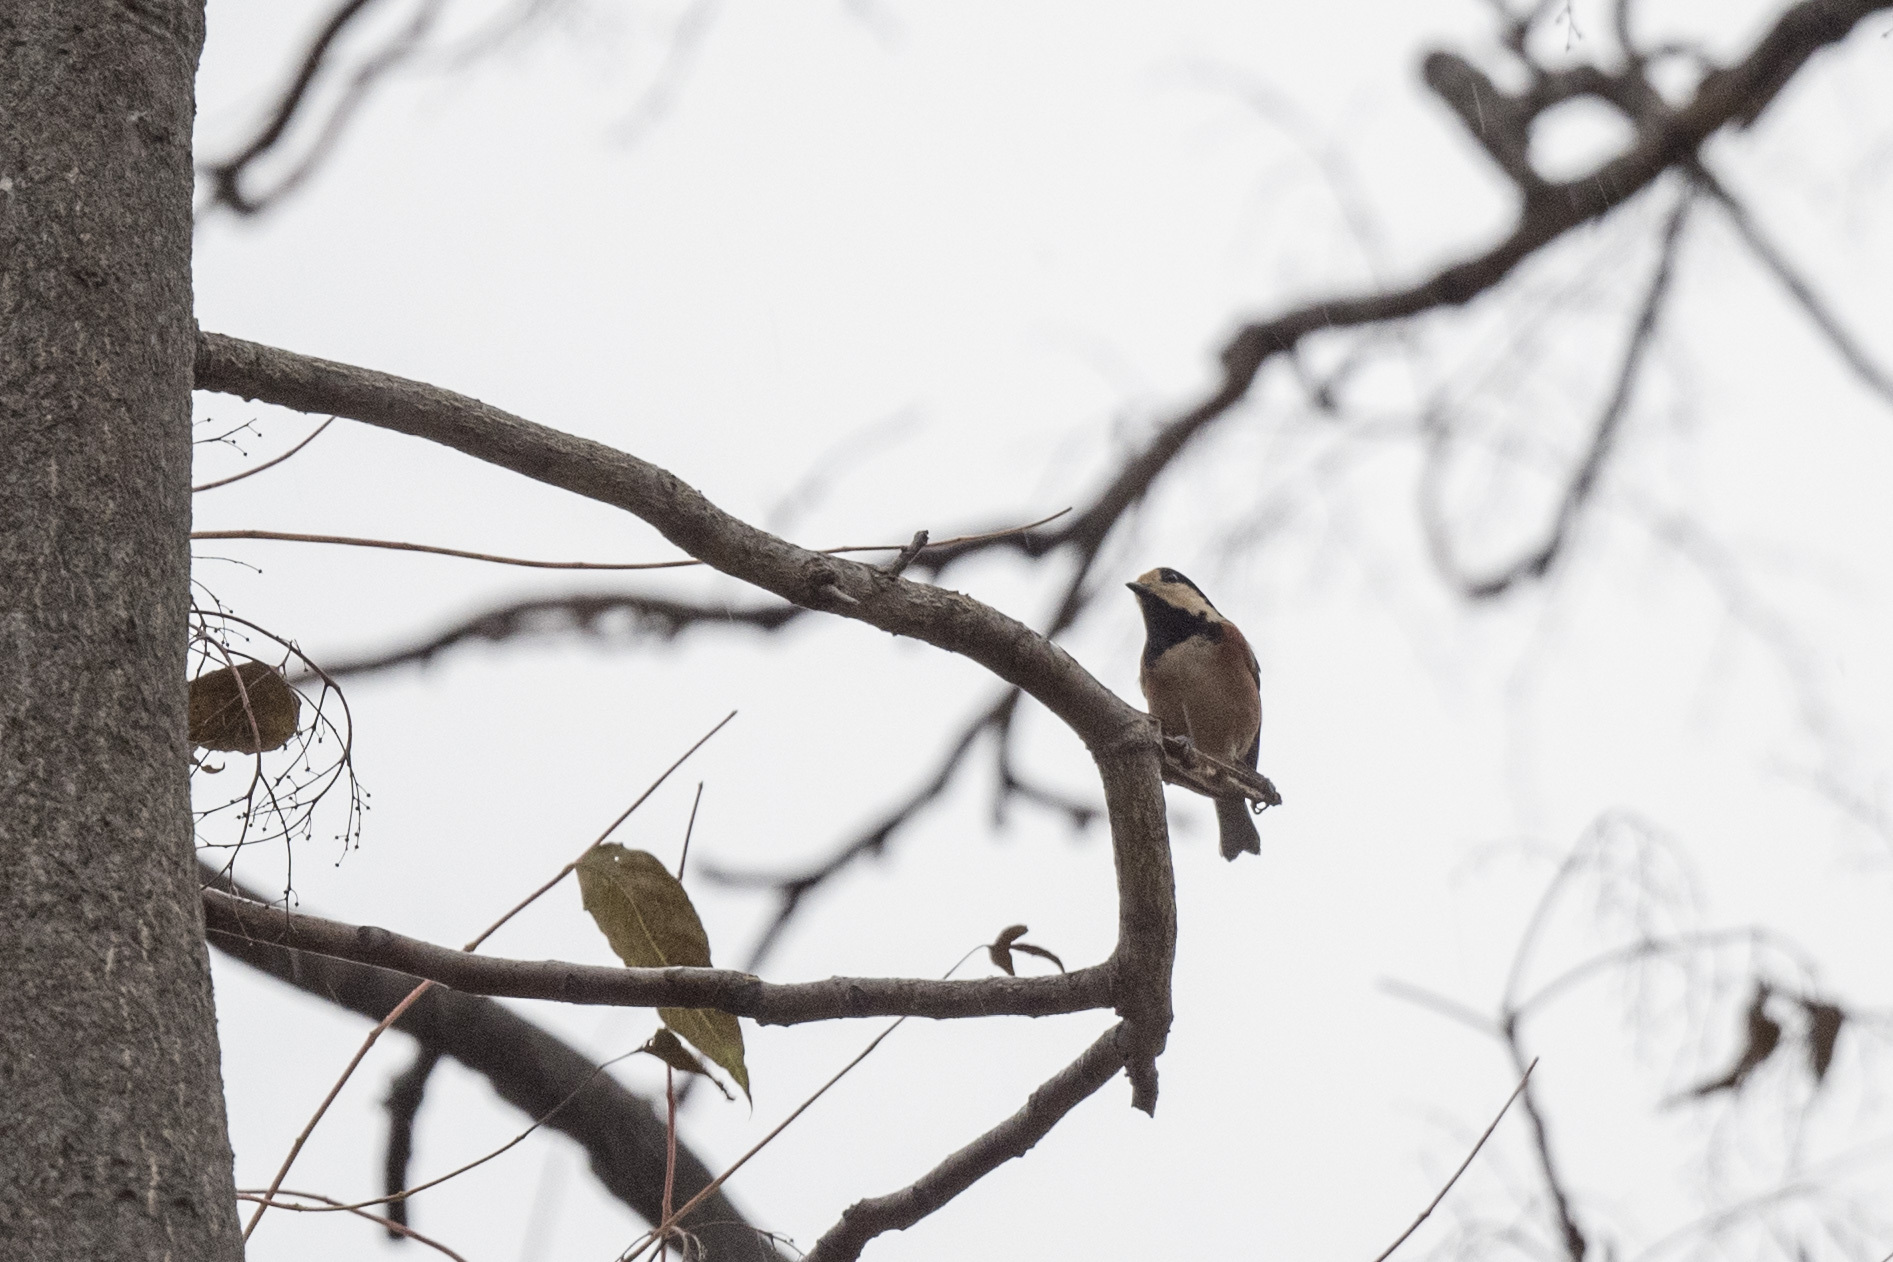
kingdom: Animalia
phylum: Chordata
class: Aves
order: Passeriformes
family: Paridae
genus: Poecile
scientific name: Poecile varius
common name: Varied tit
